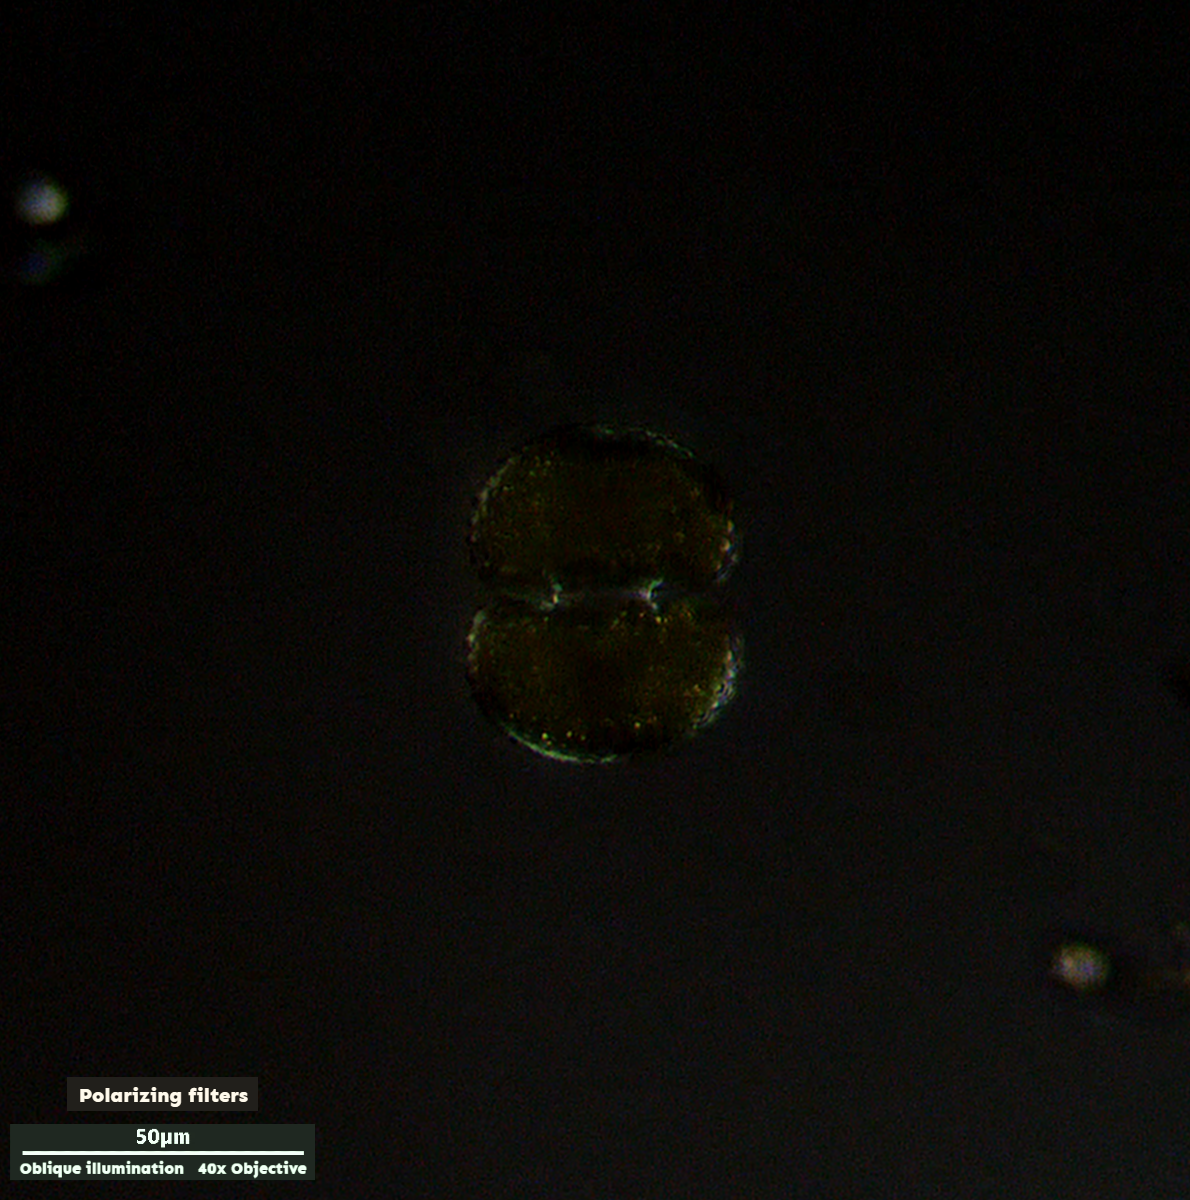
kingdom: Plantae
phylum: Charophyta
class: Conjugatophyceae
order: Desmidiales
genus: Cosmarium
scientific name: Cosmarium reniforme
